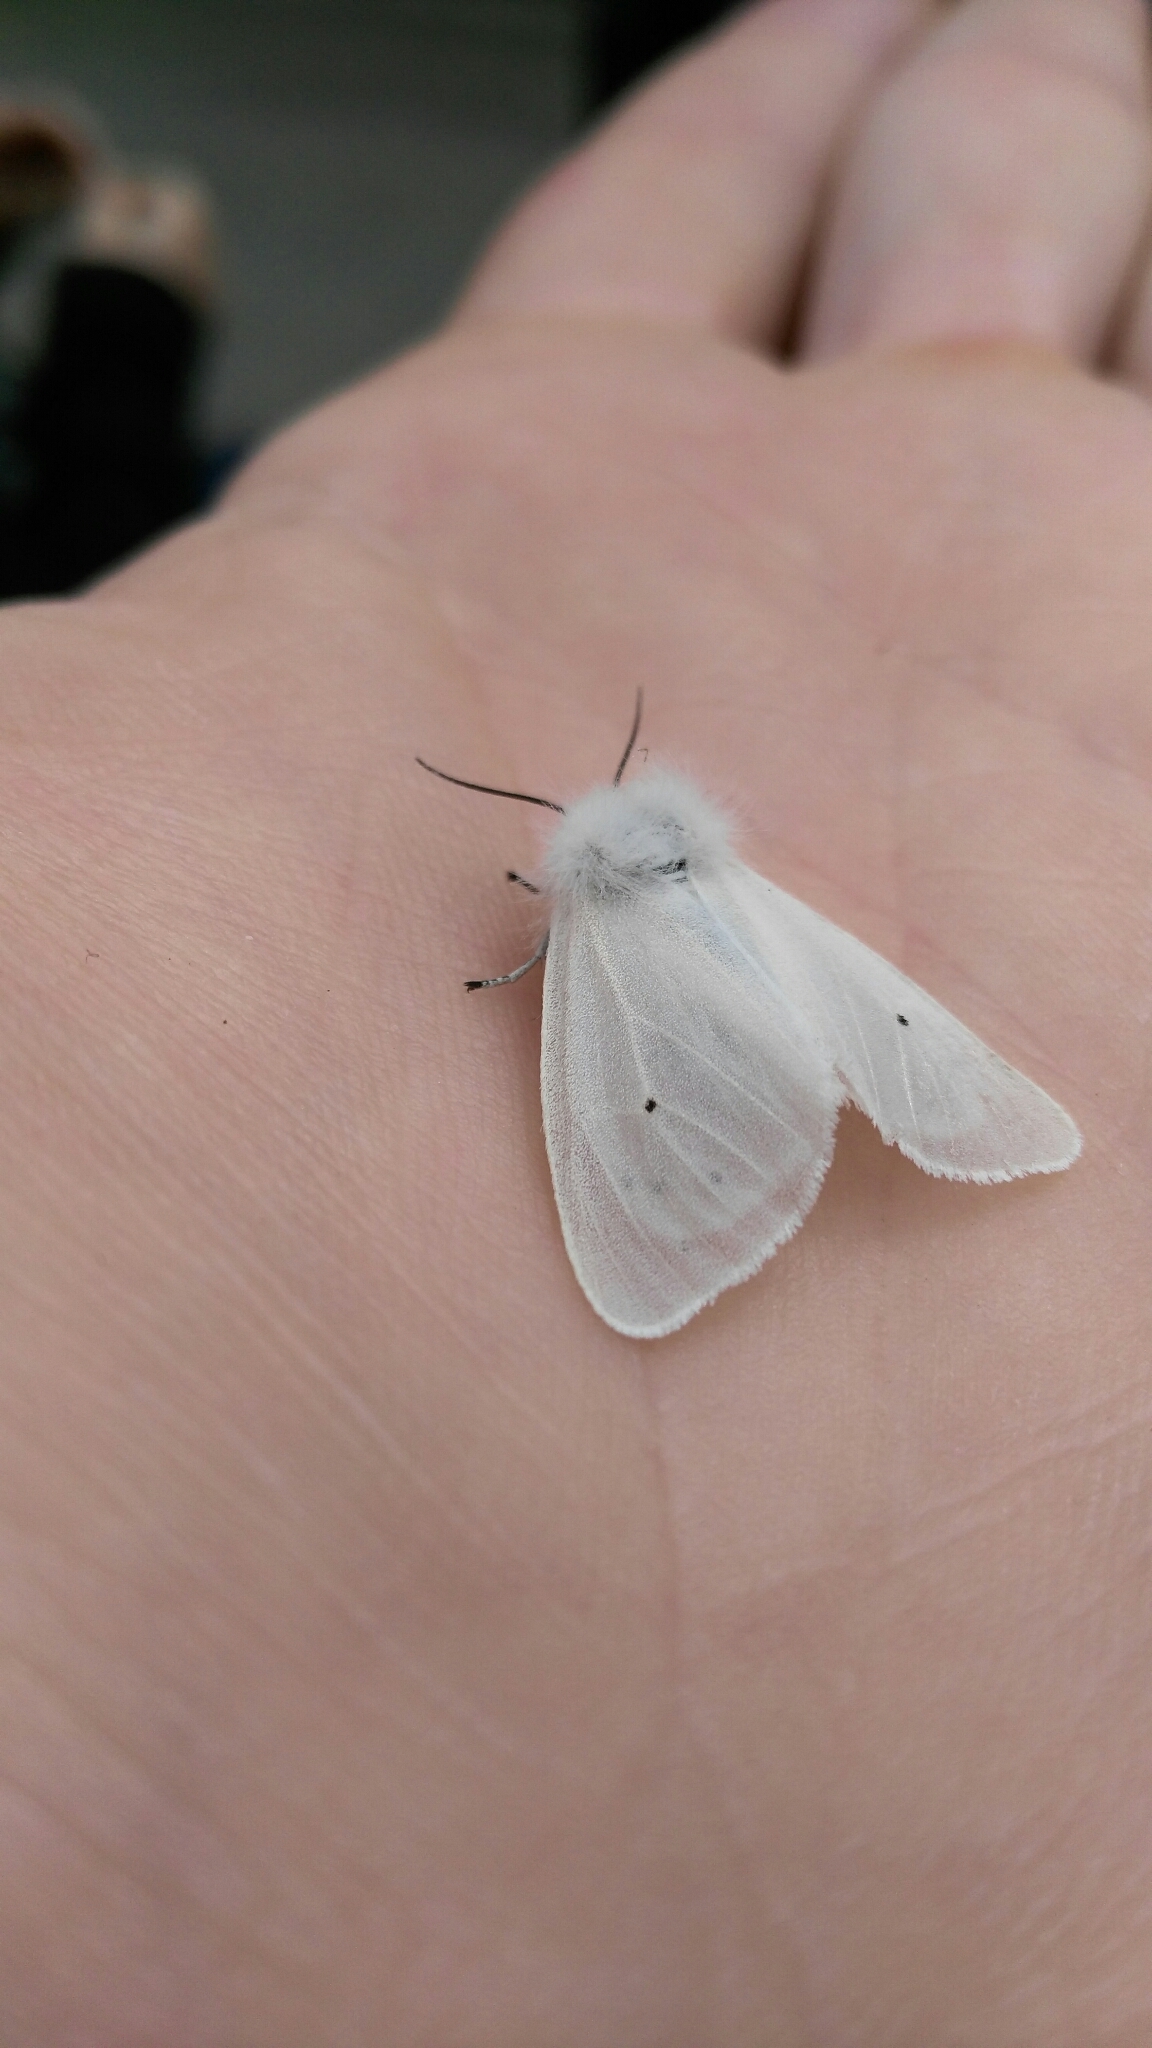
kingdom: Animalia
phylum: Arthropoda
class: Insecta
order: Lepidoptera
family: Erebidae
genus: Diaphora
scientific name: Diaphora mendica
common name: Muslin moth
